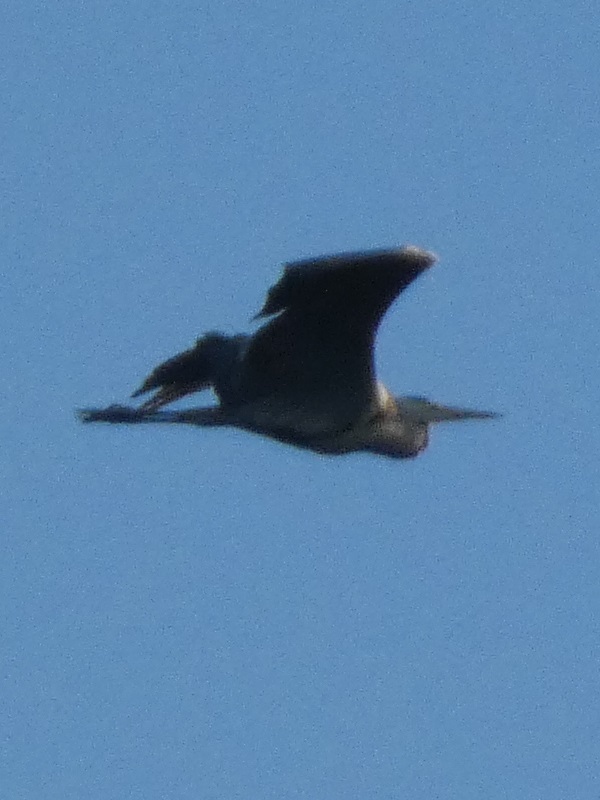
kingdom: Animalia
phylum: Chordata
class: Aves
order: Pelecaniformes
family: Ardeidae
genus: Ardea
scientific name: Ardea cinerea
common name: Grey heron
